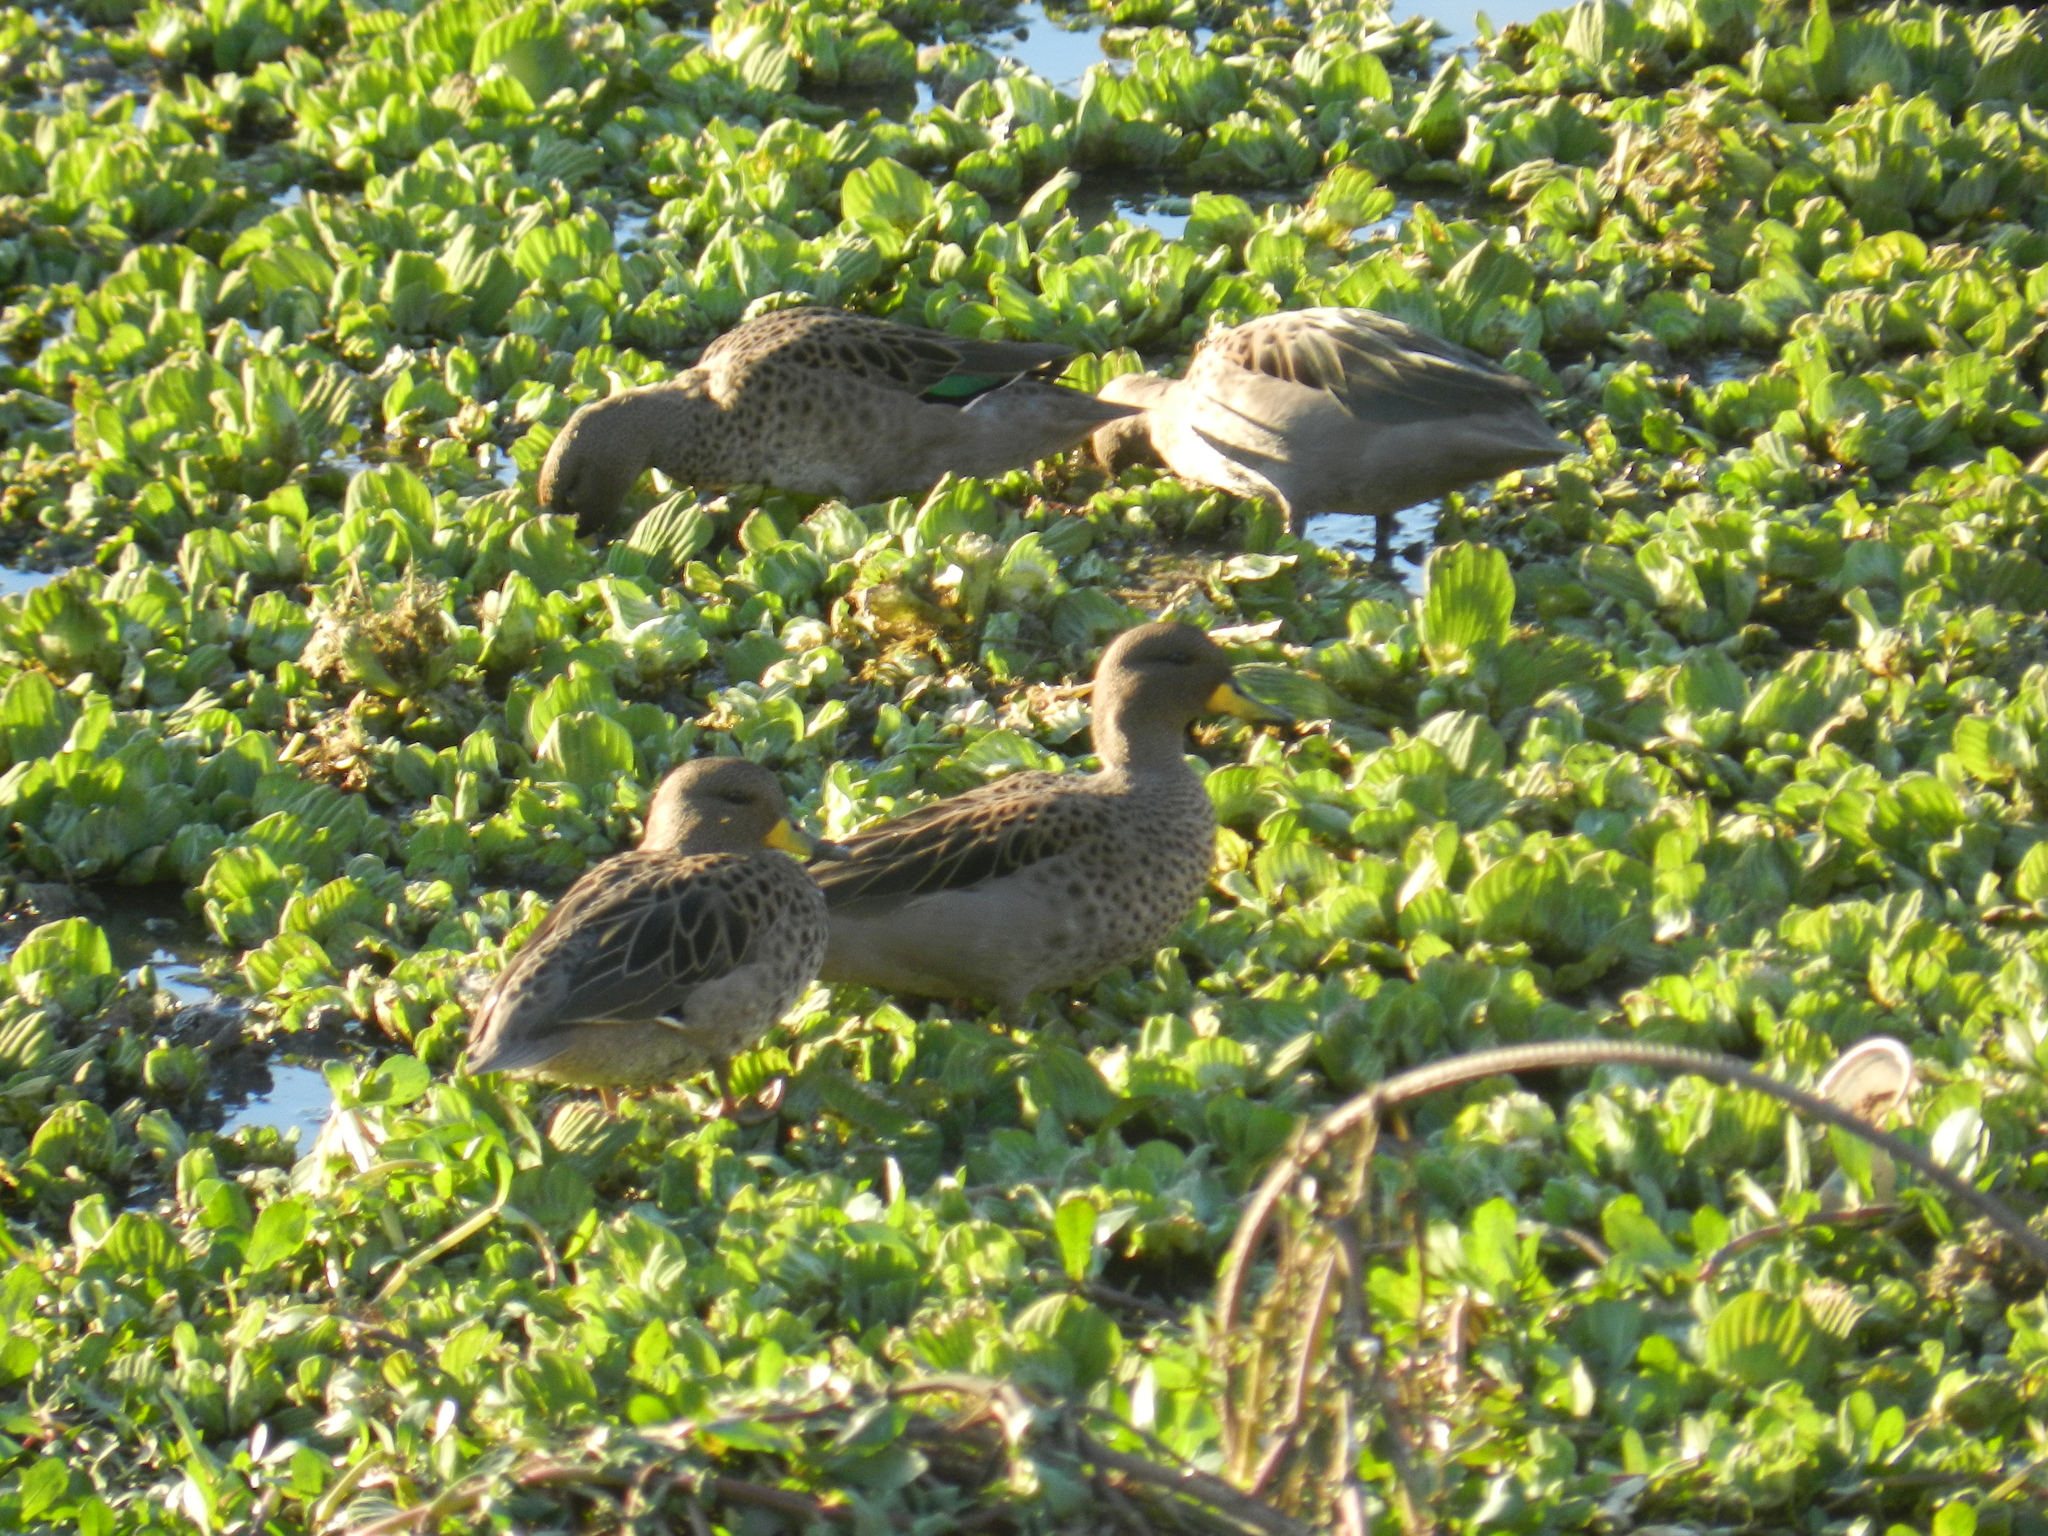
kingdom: Plantae
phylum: Tracheophyta
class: Liliopsida
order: Alismatales
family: Araceae
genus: Pistia
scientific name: Pistia stratiotes
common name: Water lettuce
